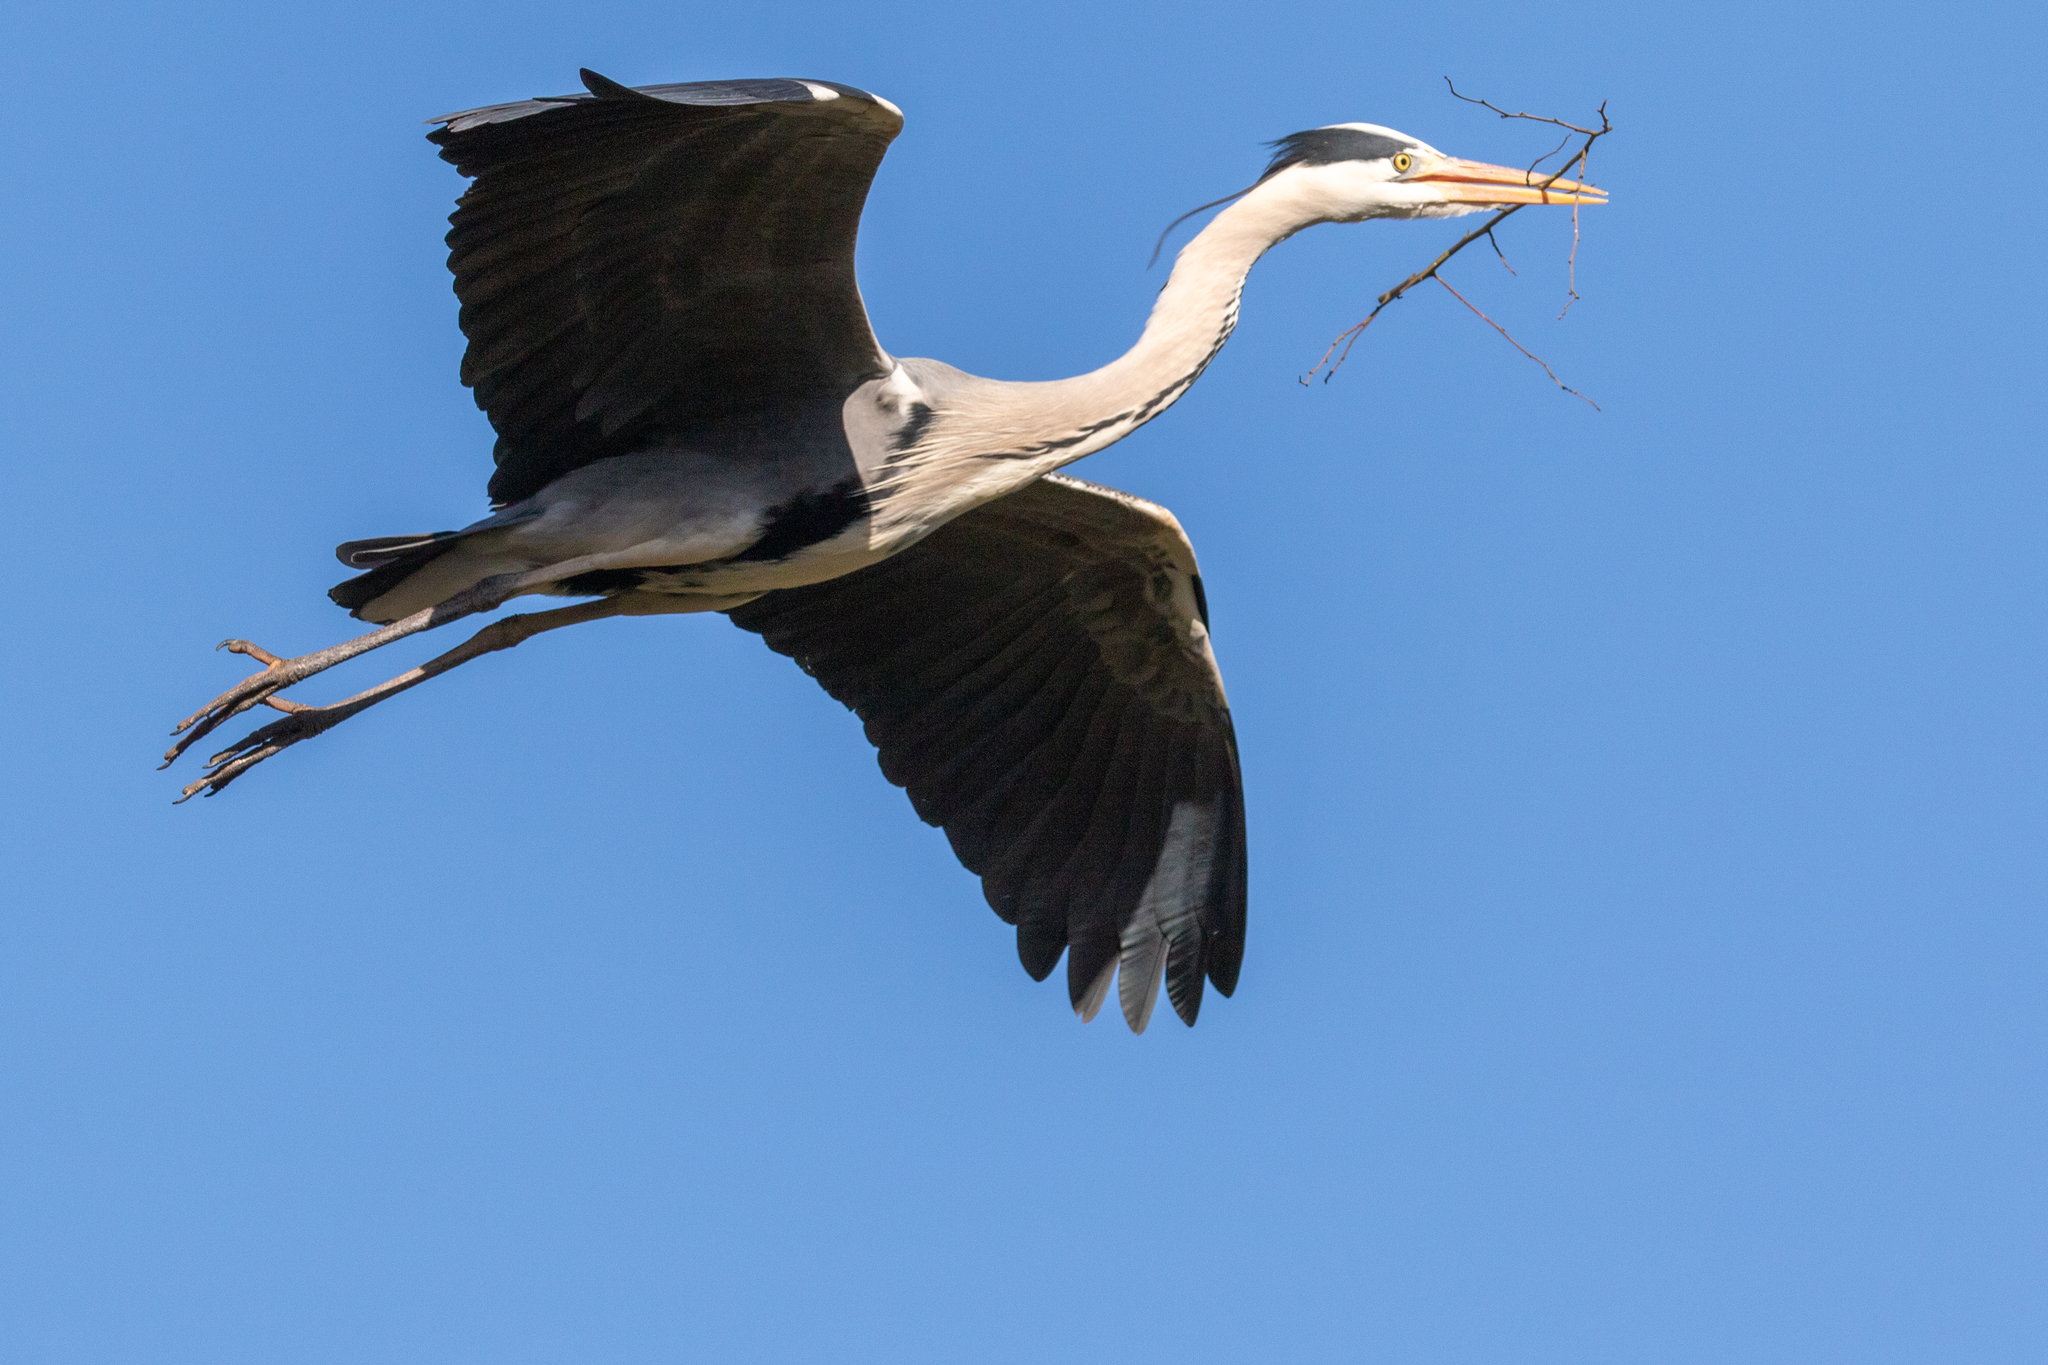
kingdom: Animalia
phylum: Chordata
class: Aves
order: Pelecaniformes
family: Ardeidae
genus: Ardea
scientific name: Ardea cinerea
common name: Grey heron
